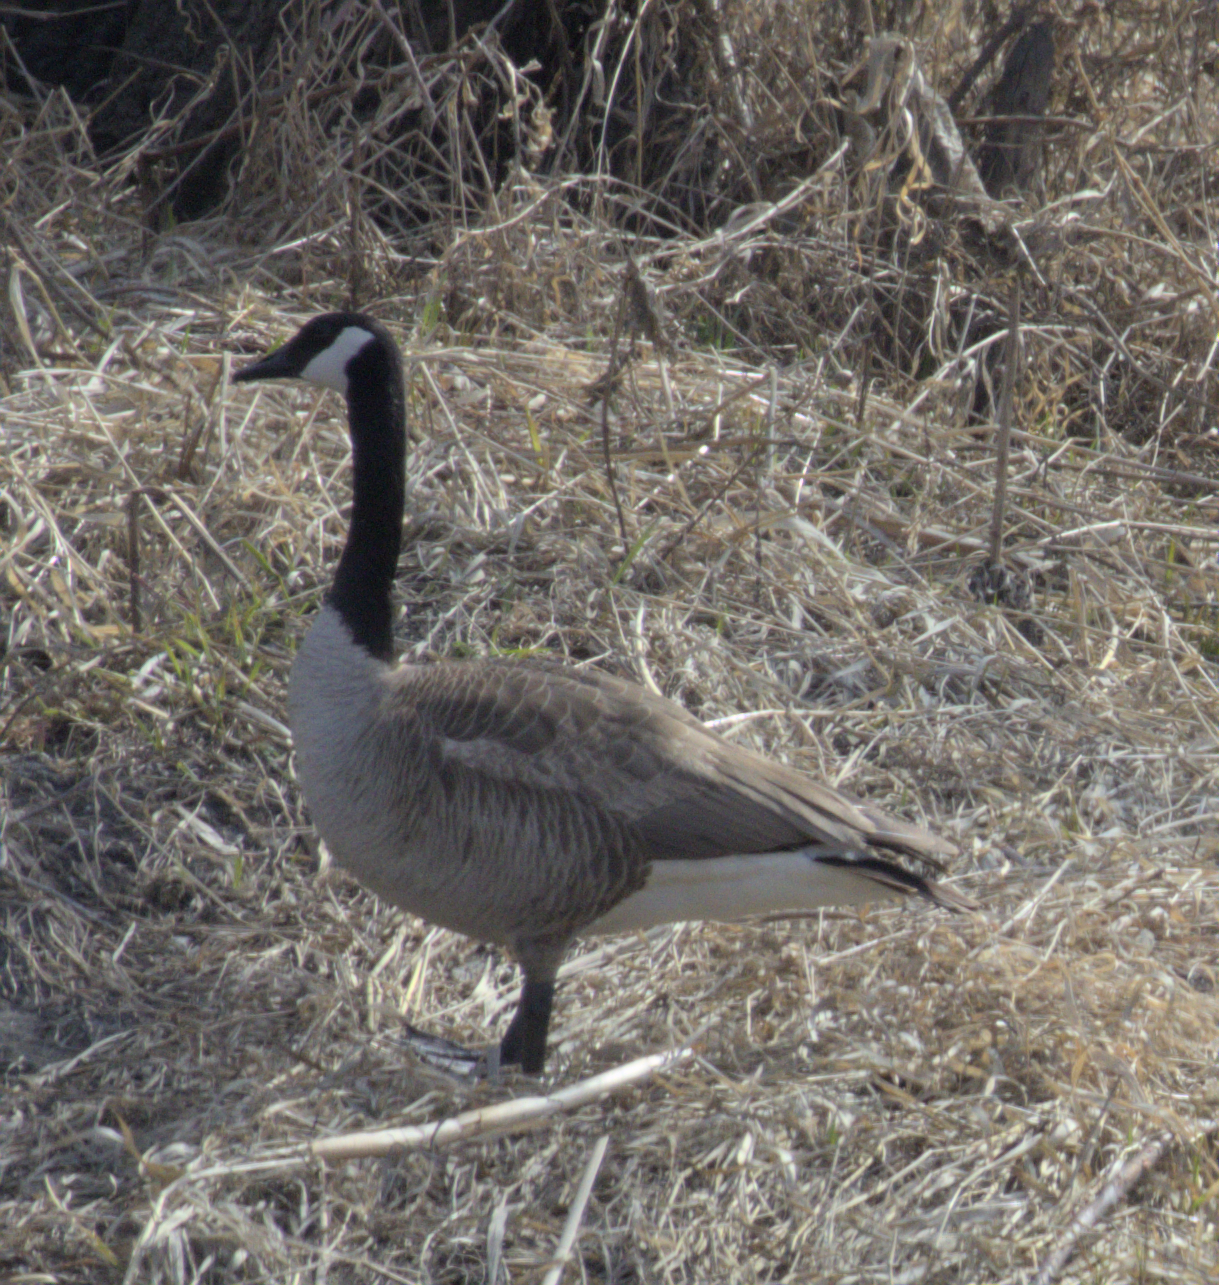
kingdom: Animalia
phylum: Chordata
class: Aves
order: Anseriformes
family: Anatidae
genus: Branta
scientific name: Branta canadensis
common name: Canada goose
